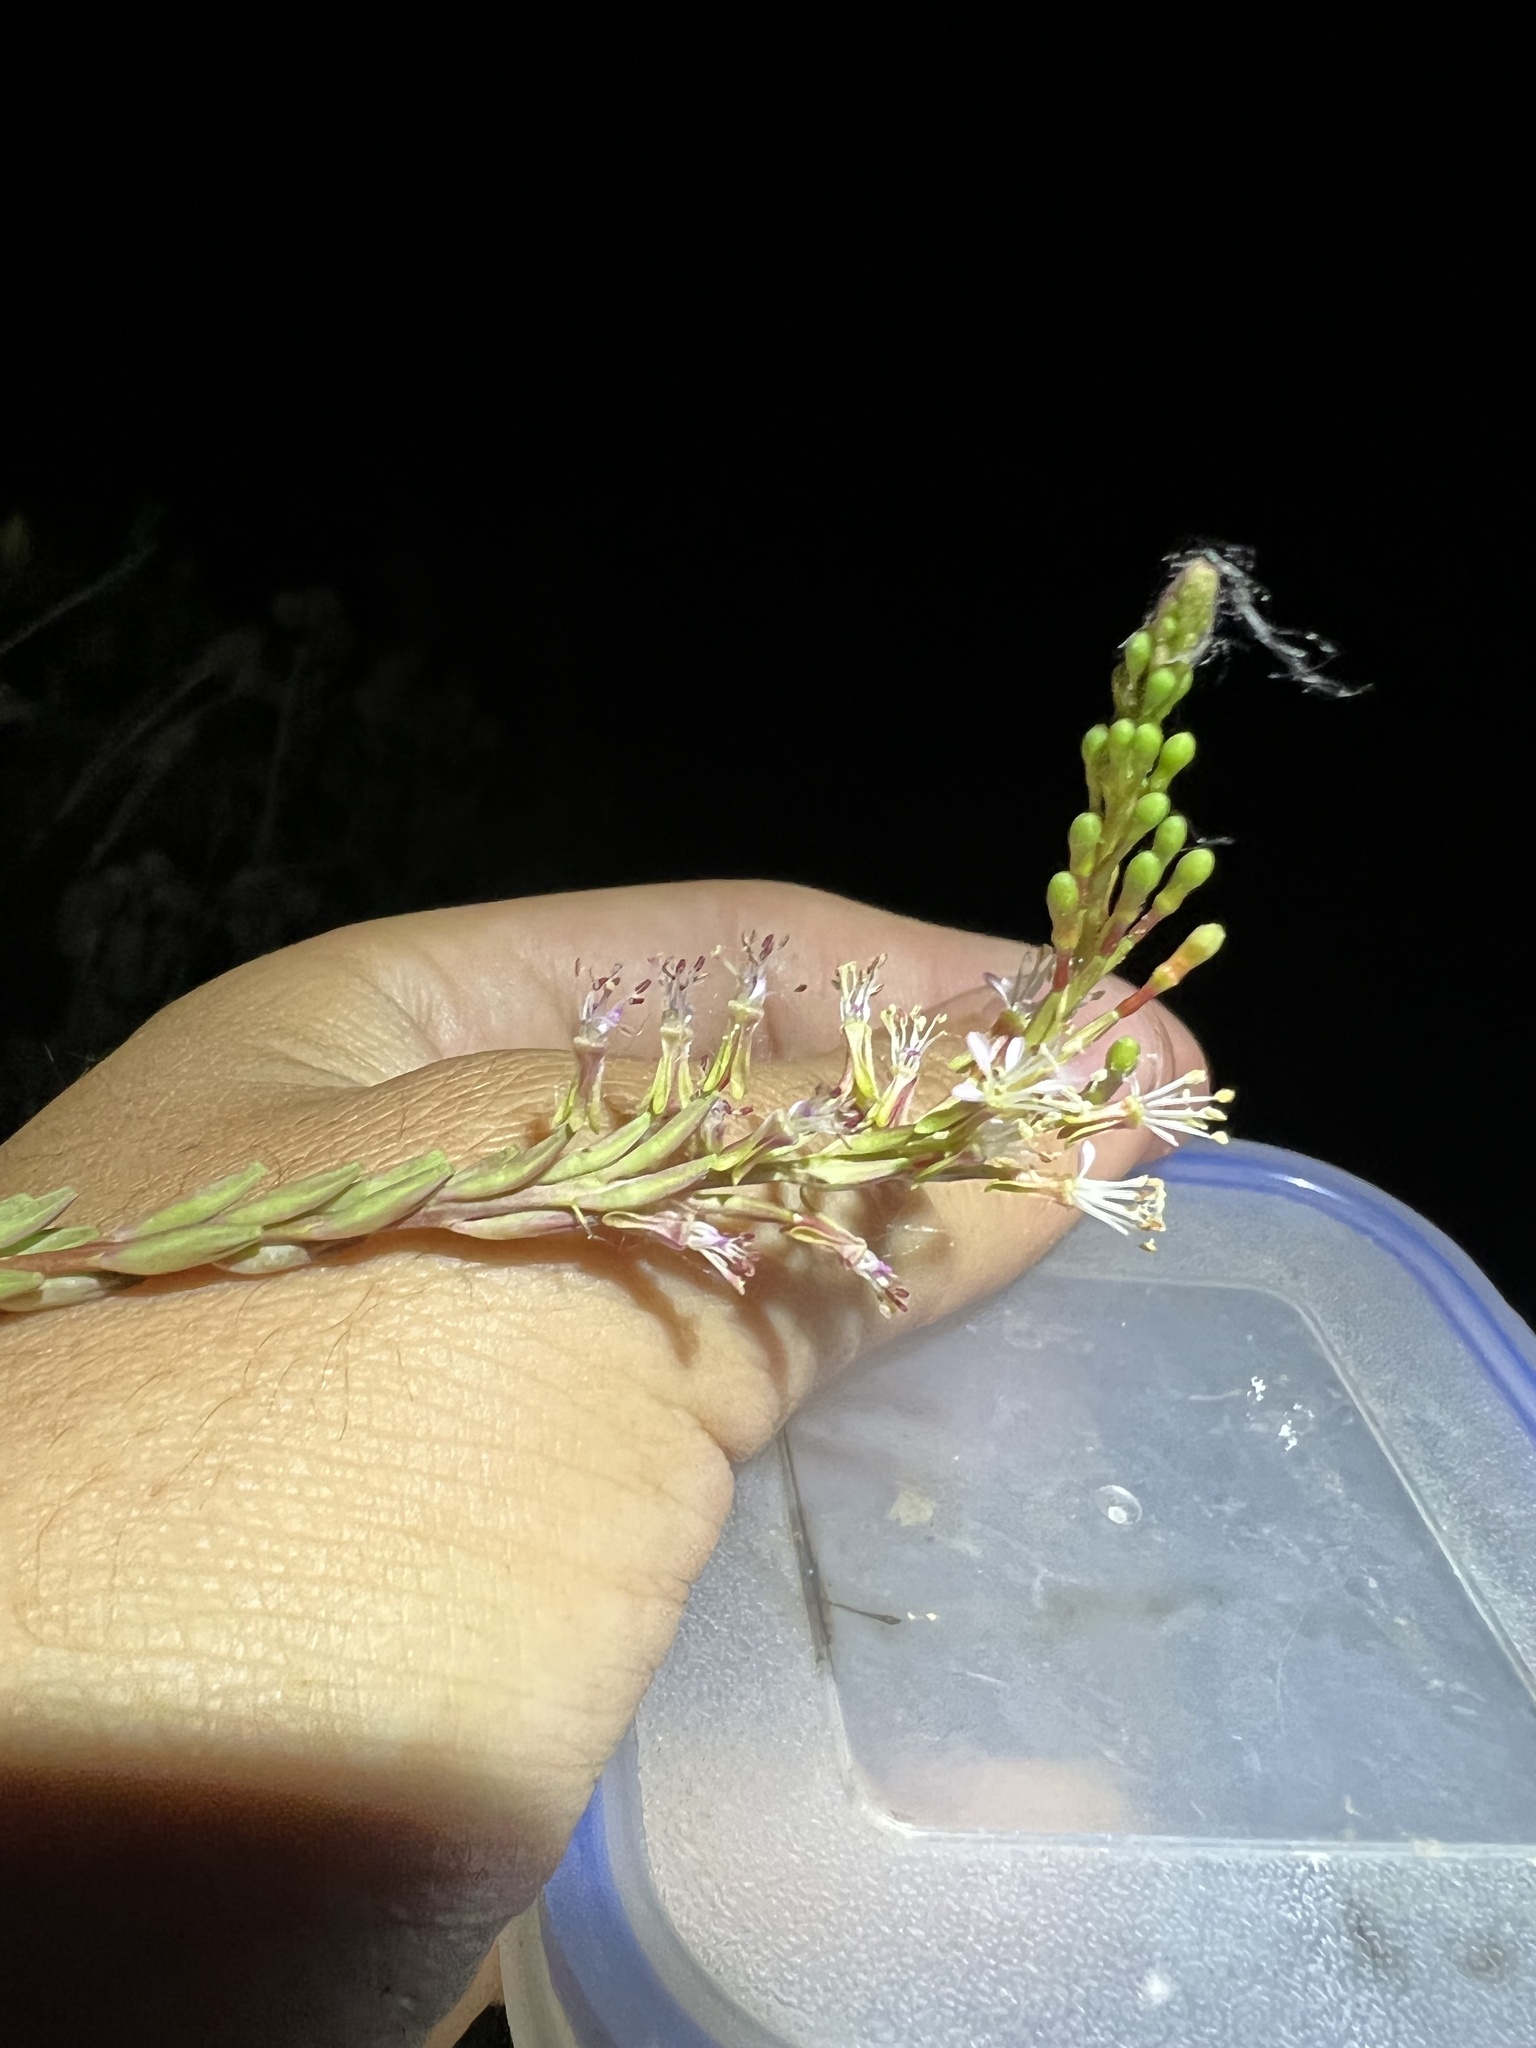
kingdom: Plantae
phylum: Tracheophyta
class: Magnoliopsida
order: Myrtales
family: Onagraceae
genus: Oenothera
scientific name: Oenothera curtiflora
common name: Velvetweed
